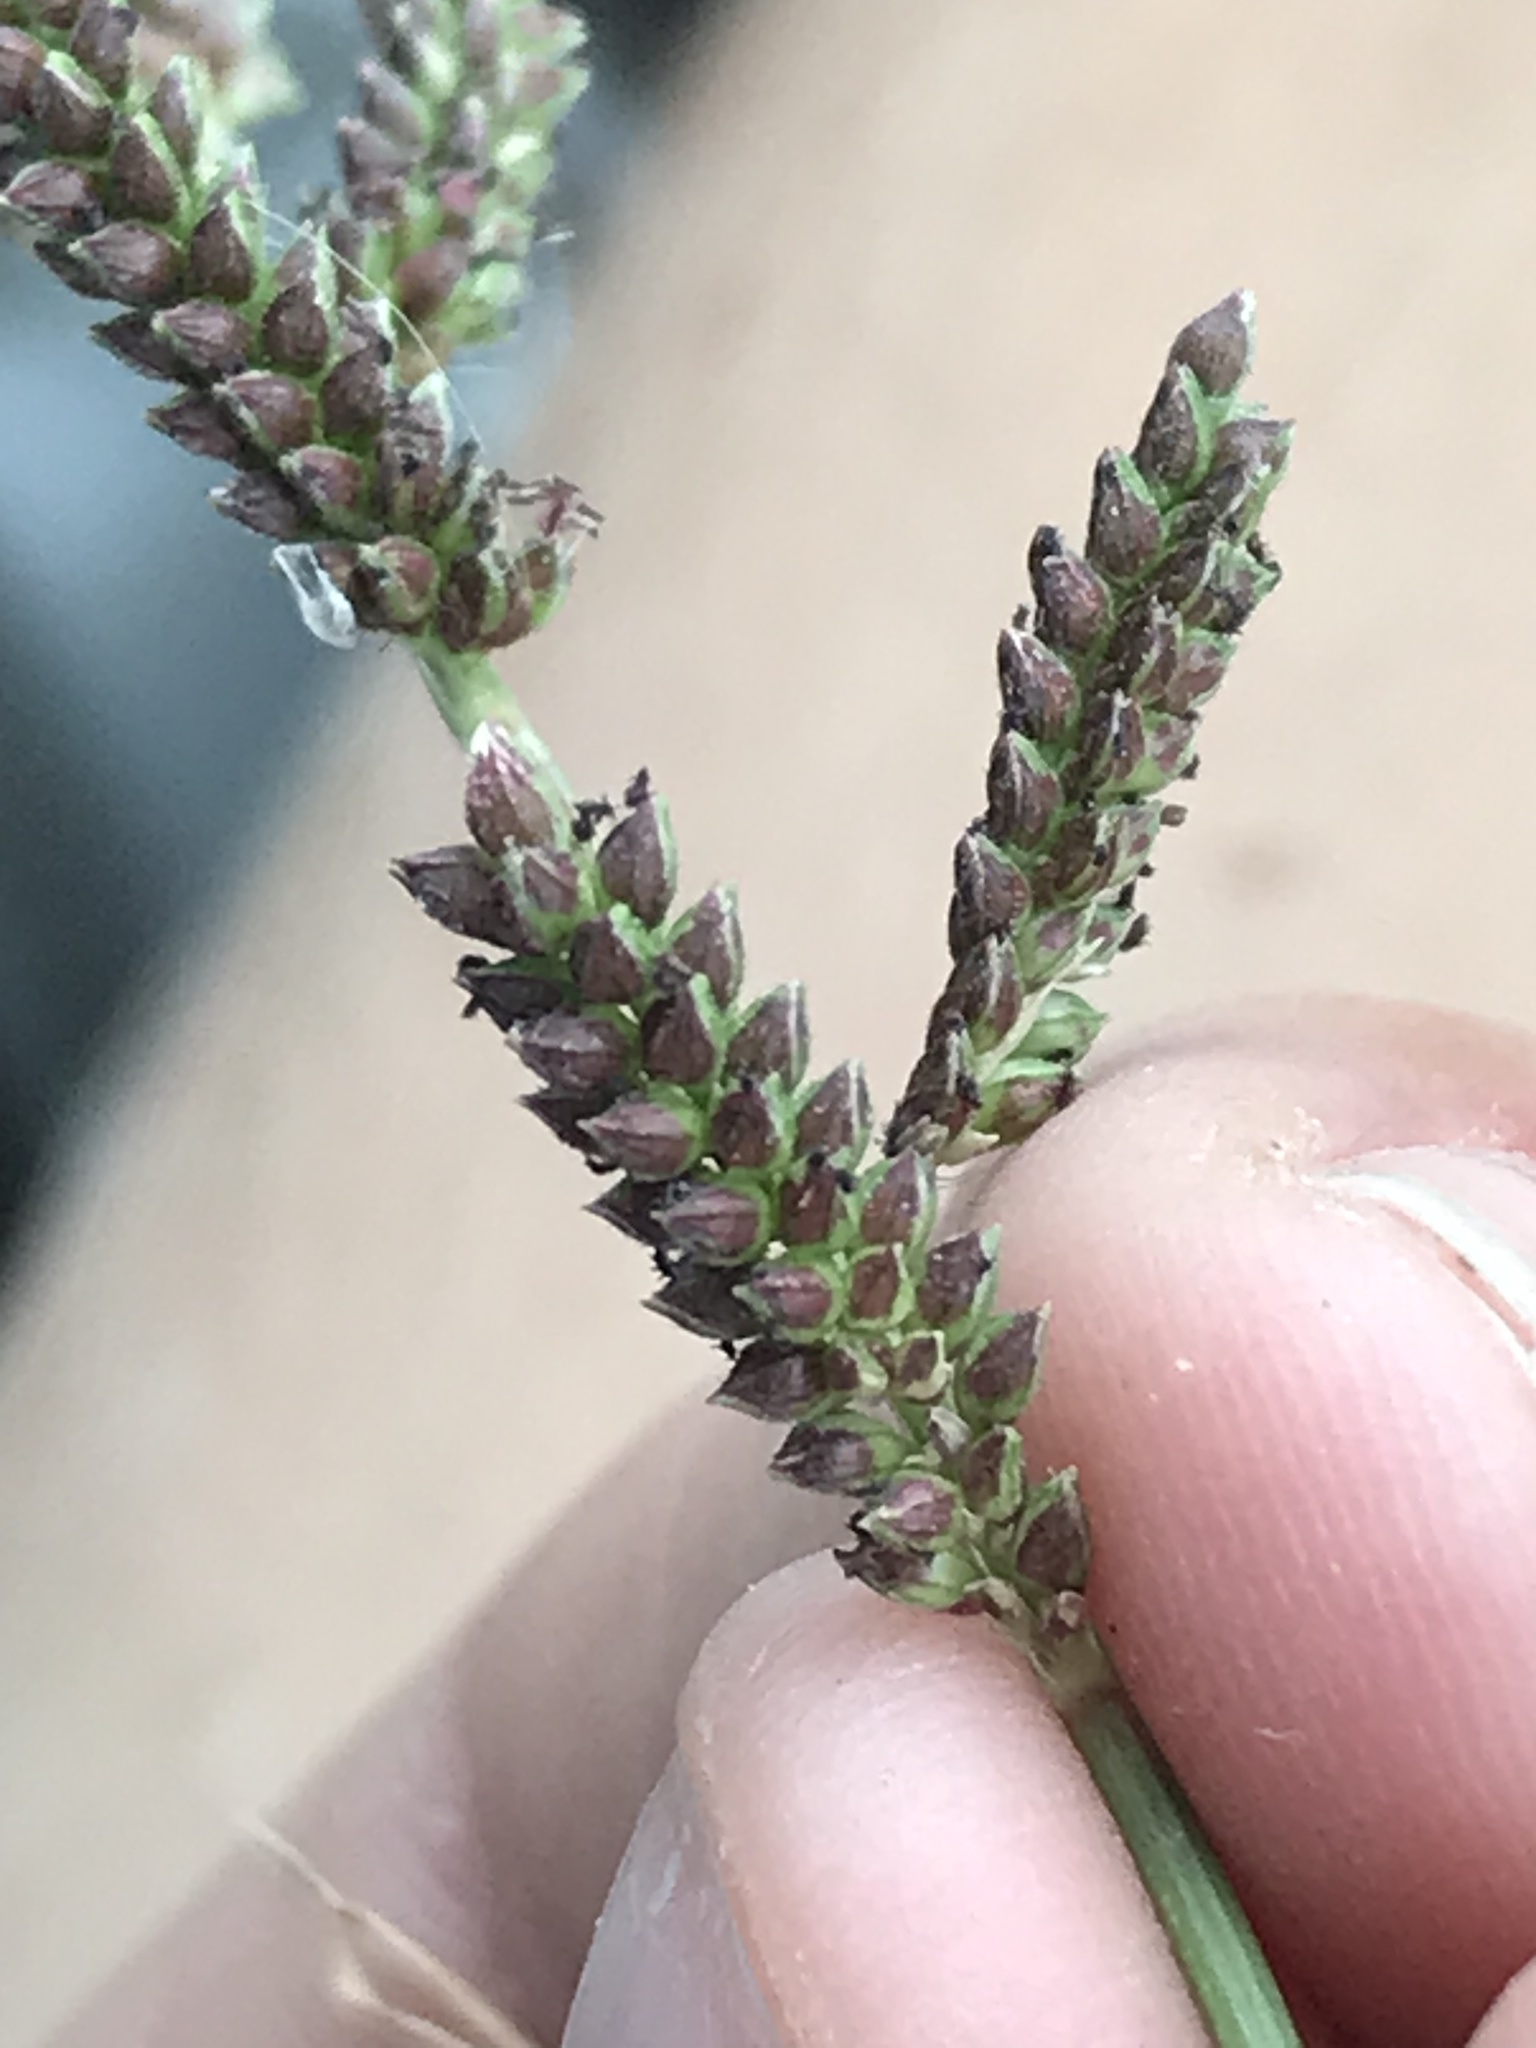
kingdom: Plantae
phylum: Tracheophyta
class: Liliopsida
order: Poales
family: Poaceae
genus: Echinochloa
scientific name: Echinochloa colonum
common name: Jungle rice
